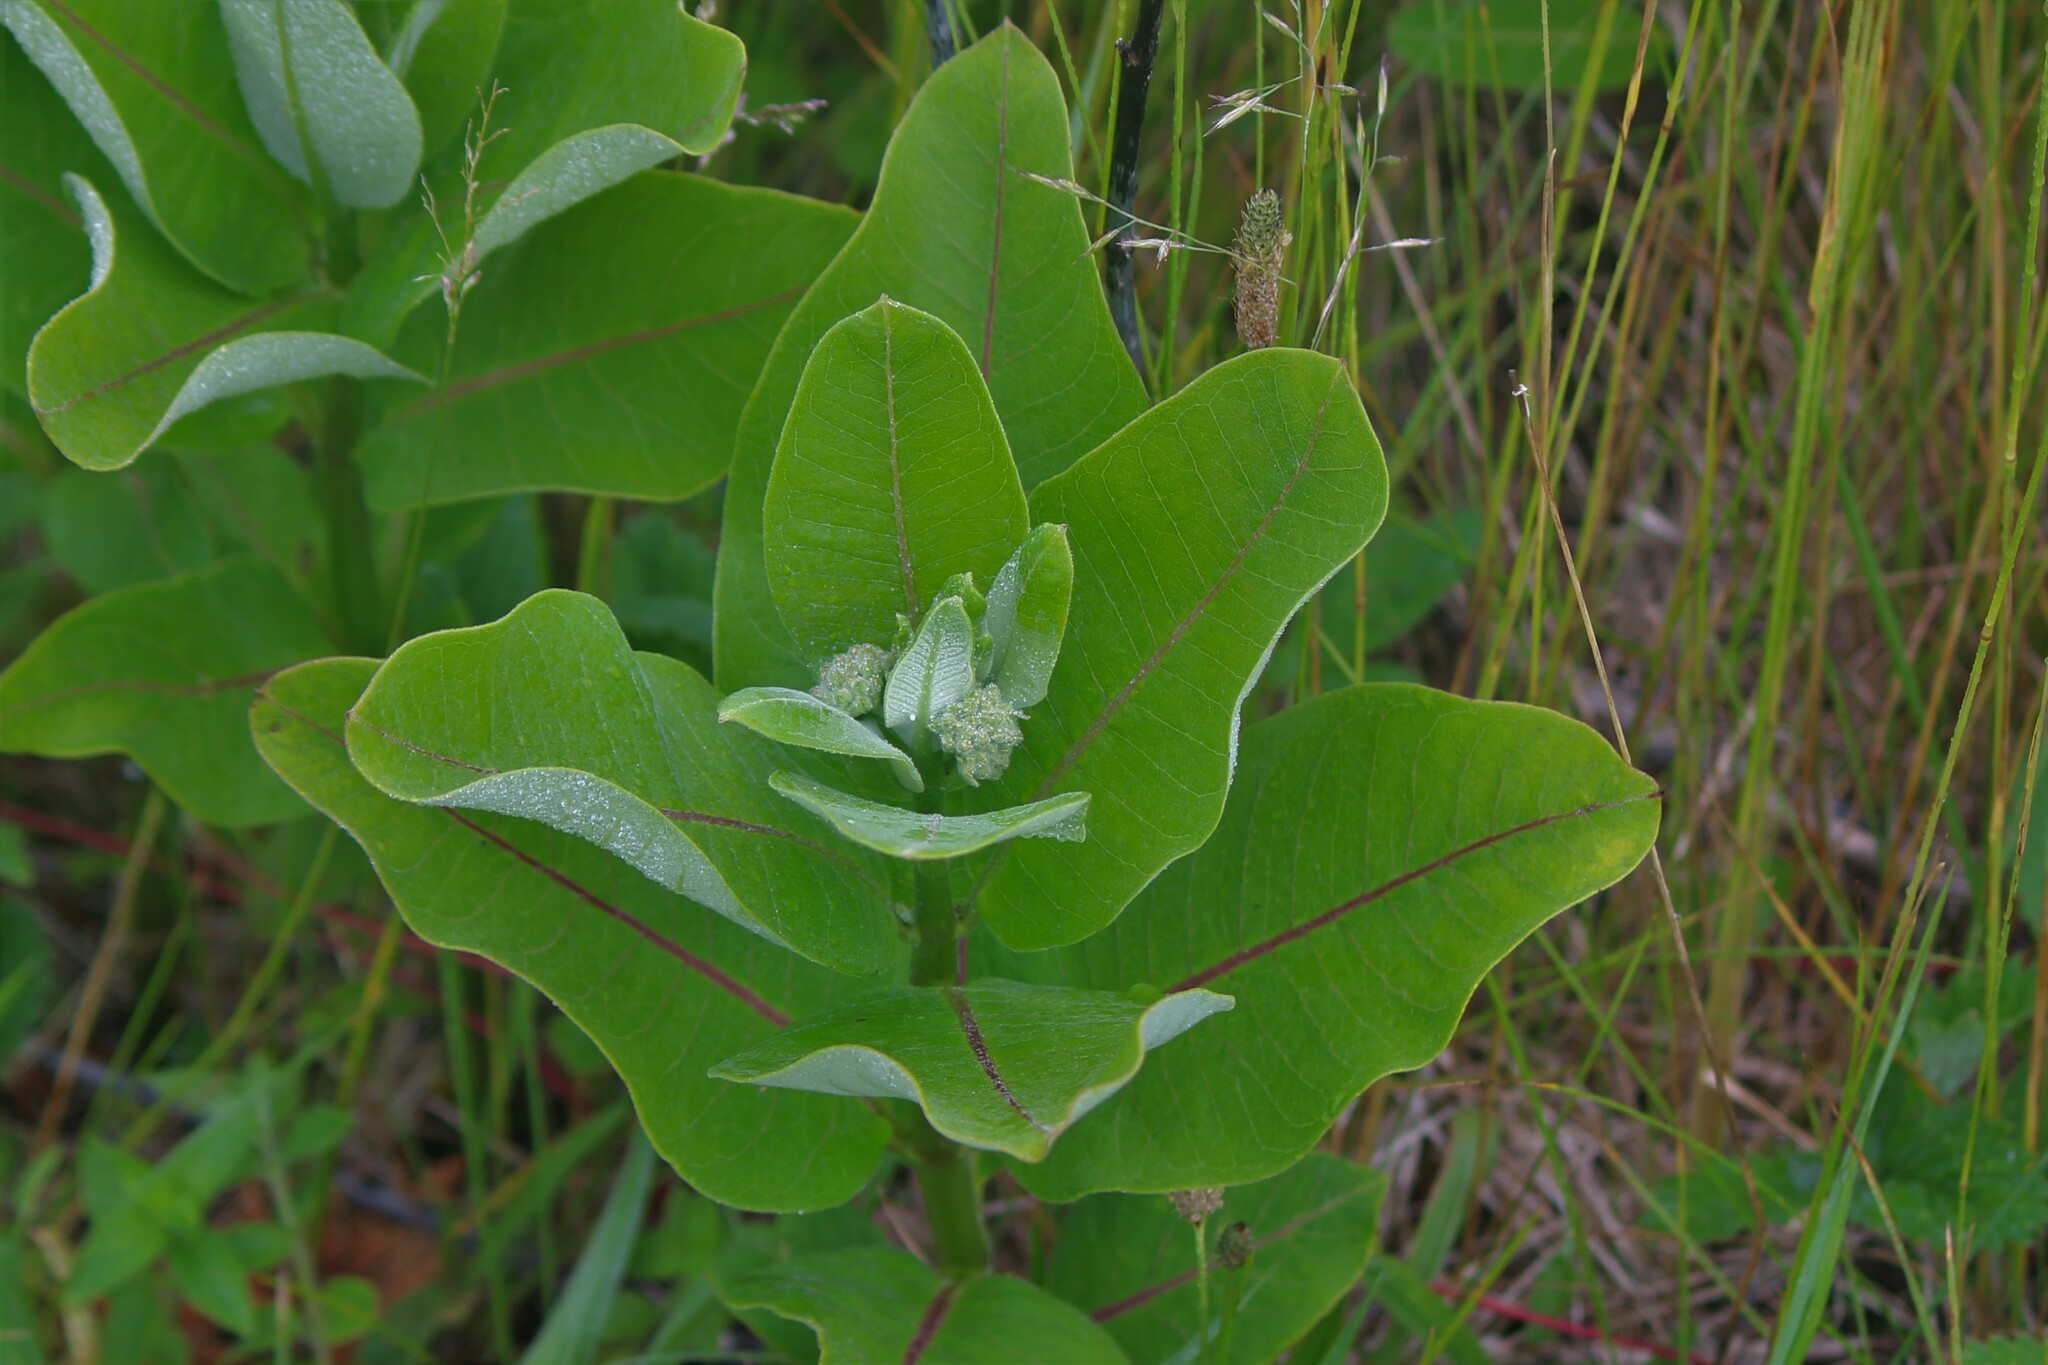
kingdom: Plantae
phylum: Tracheophyta
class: Magnoliopsida
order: Gentianales
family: Apocynaceae
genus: Asclepias
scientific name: Asclepias syriaca
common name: Common milkweed
